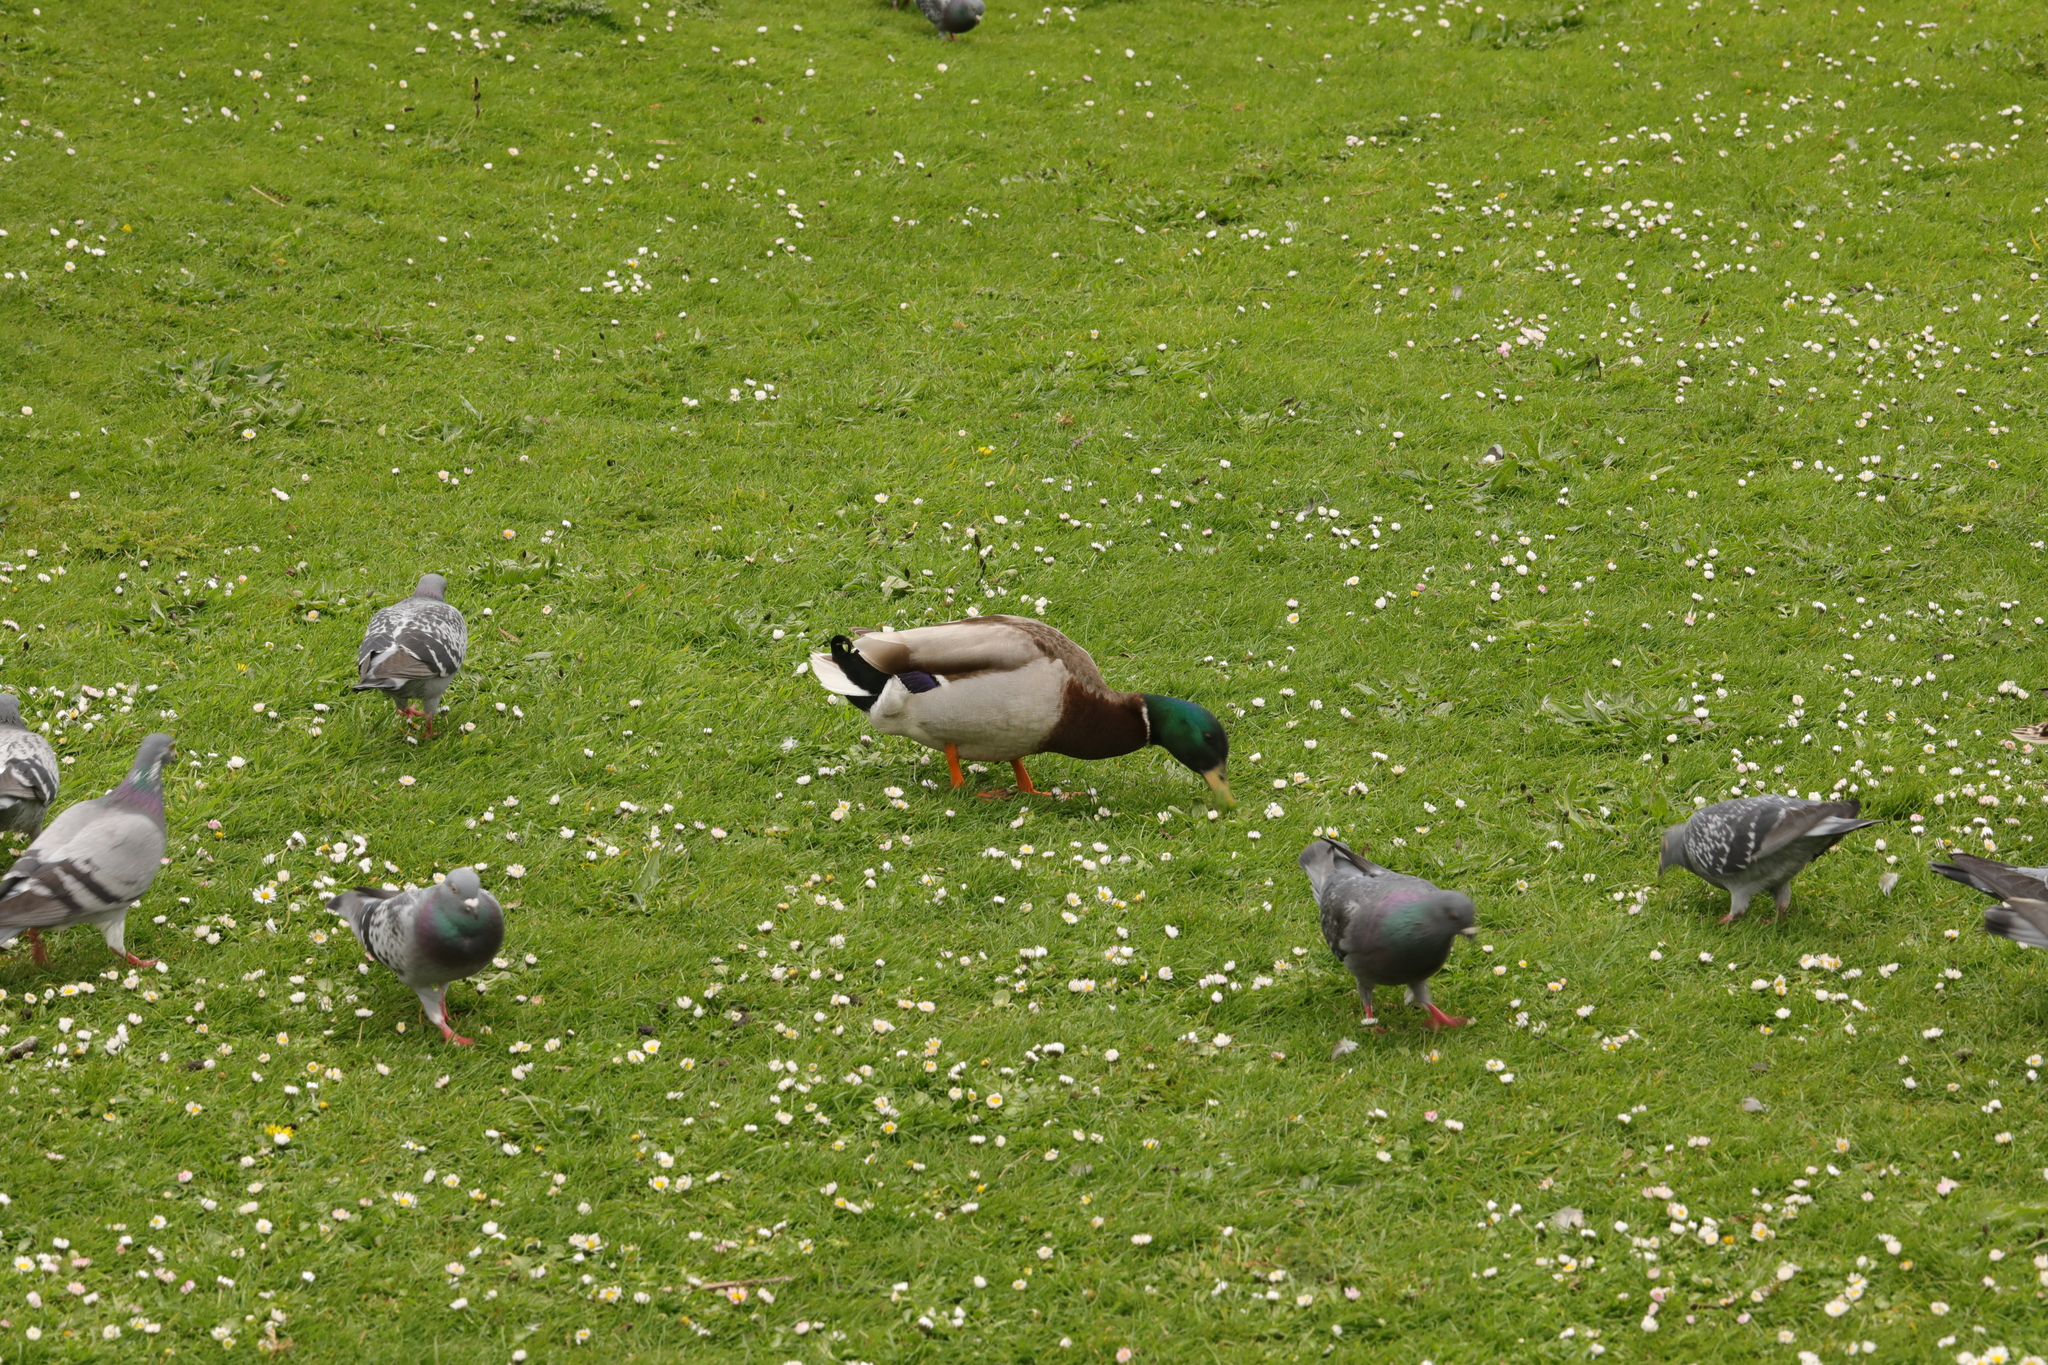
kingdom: Animalia
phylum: Chordata
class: Aves
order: Anseriformes
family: Anatidae
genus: Anas
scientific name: Anas platyrhynchos
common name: Mallard
